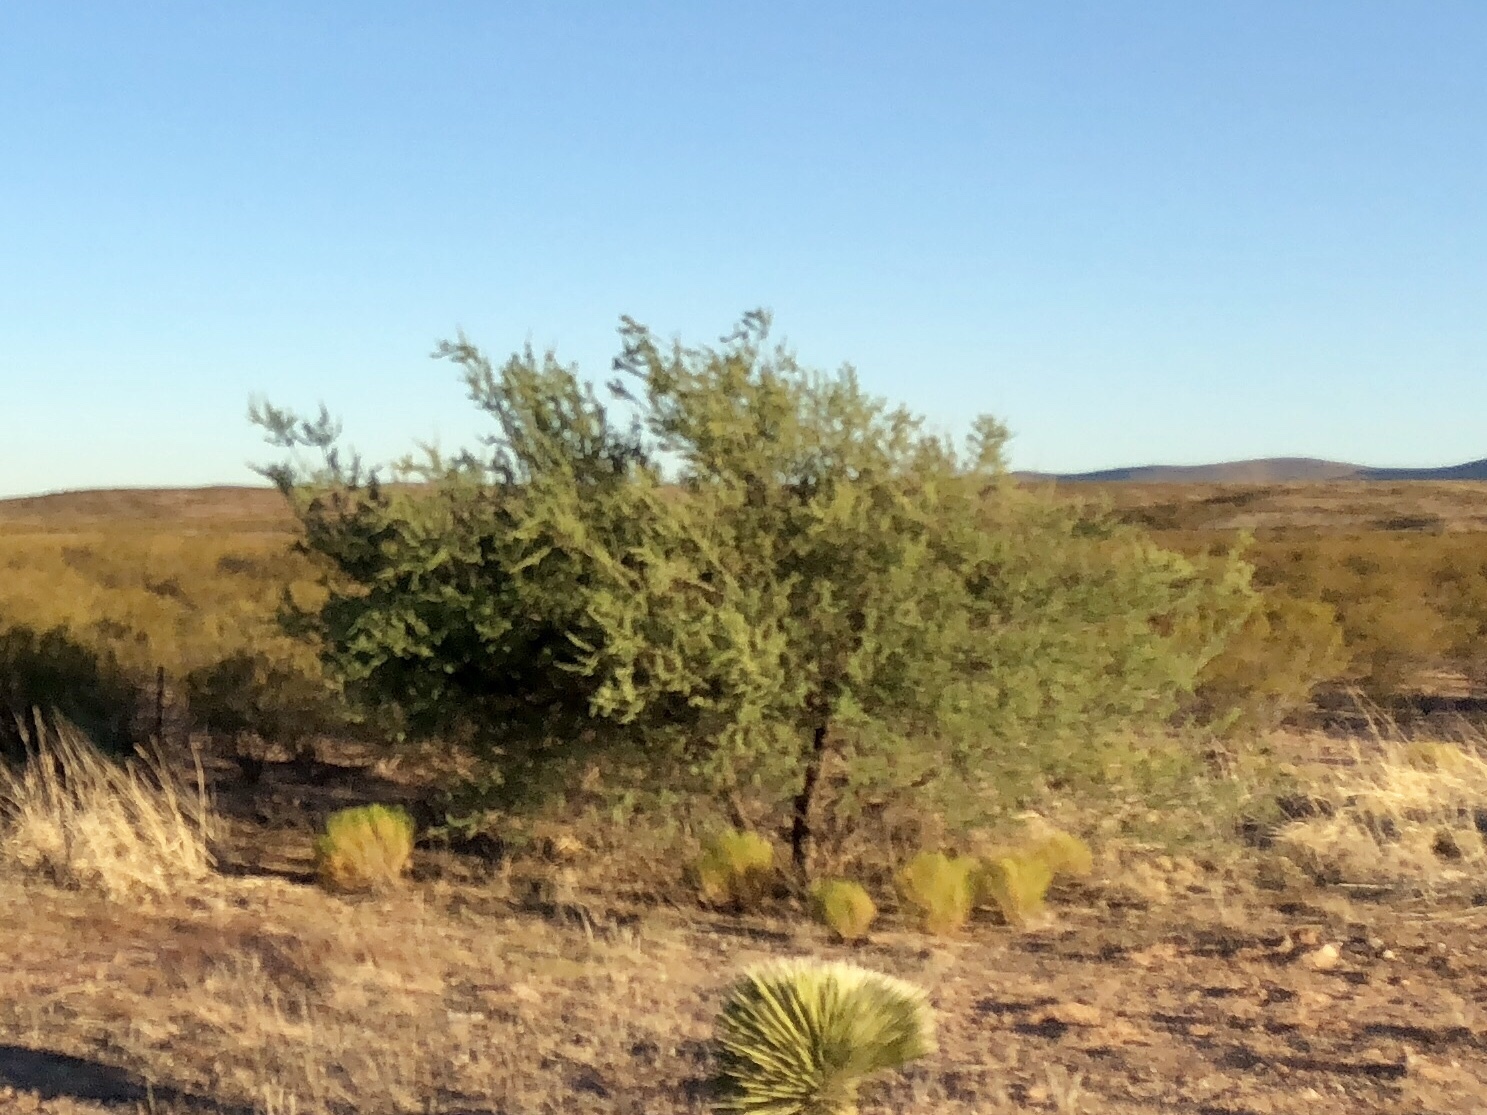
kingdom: Plantae
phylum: Tracheophyta
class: Magnoliopsida
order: Fabales
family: Fabaceae
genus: Senegalia
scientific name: Senegalia greggii
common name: Texas-mimosa
